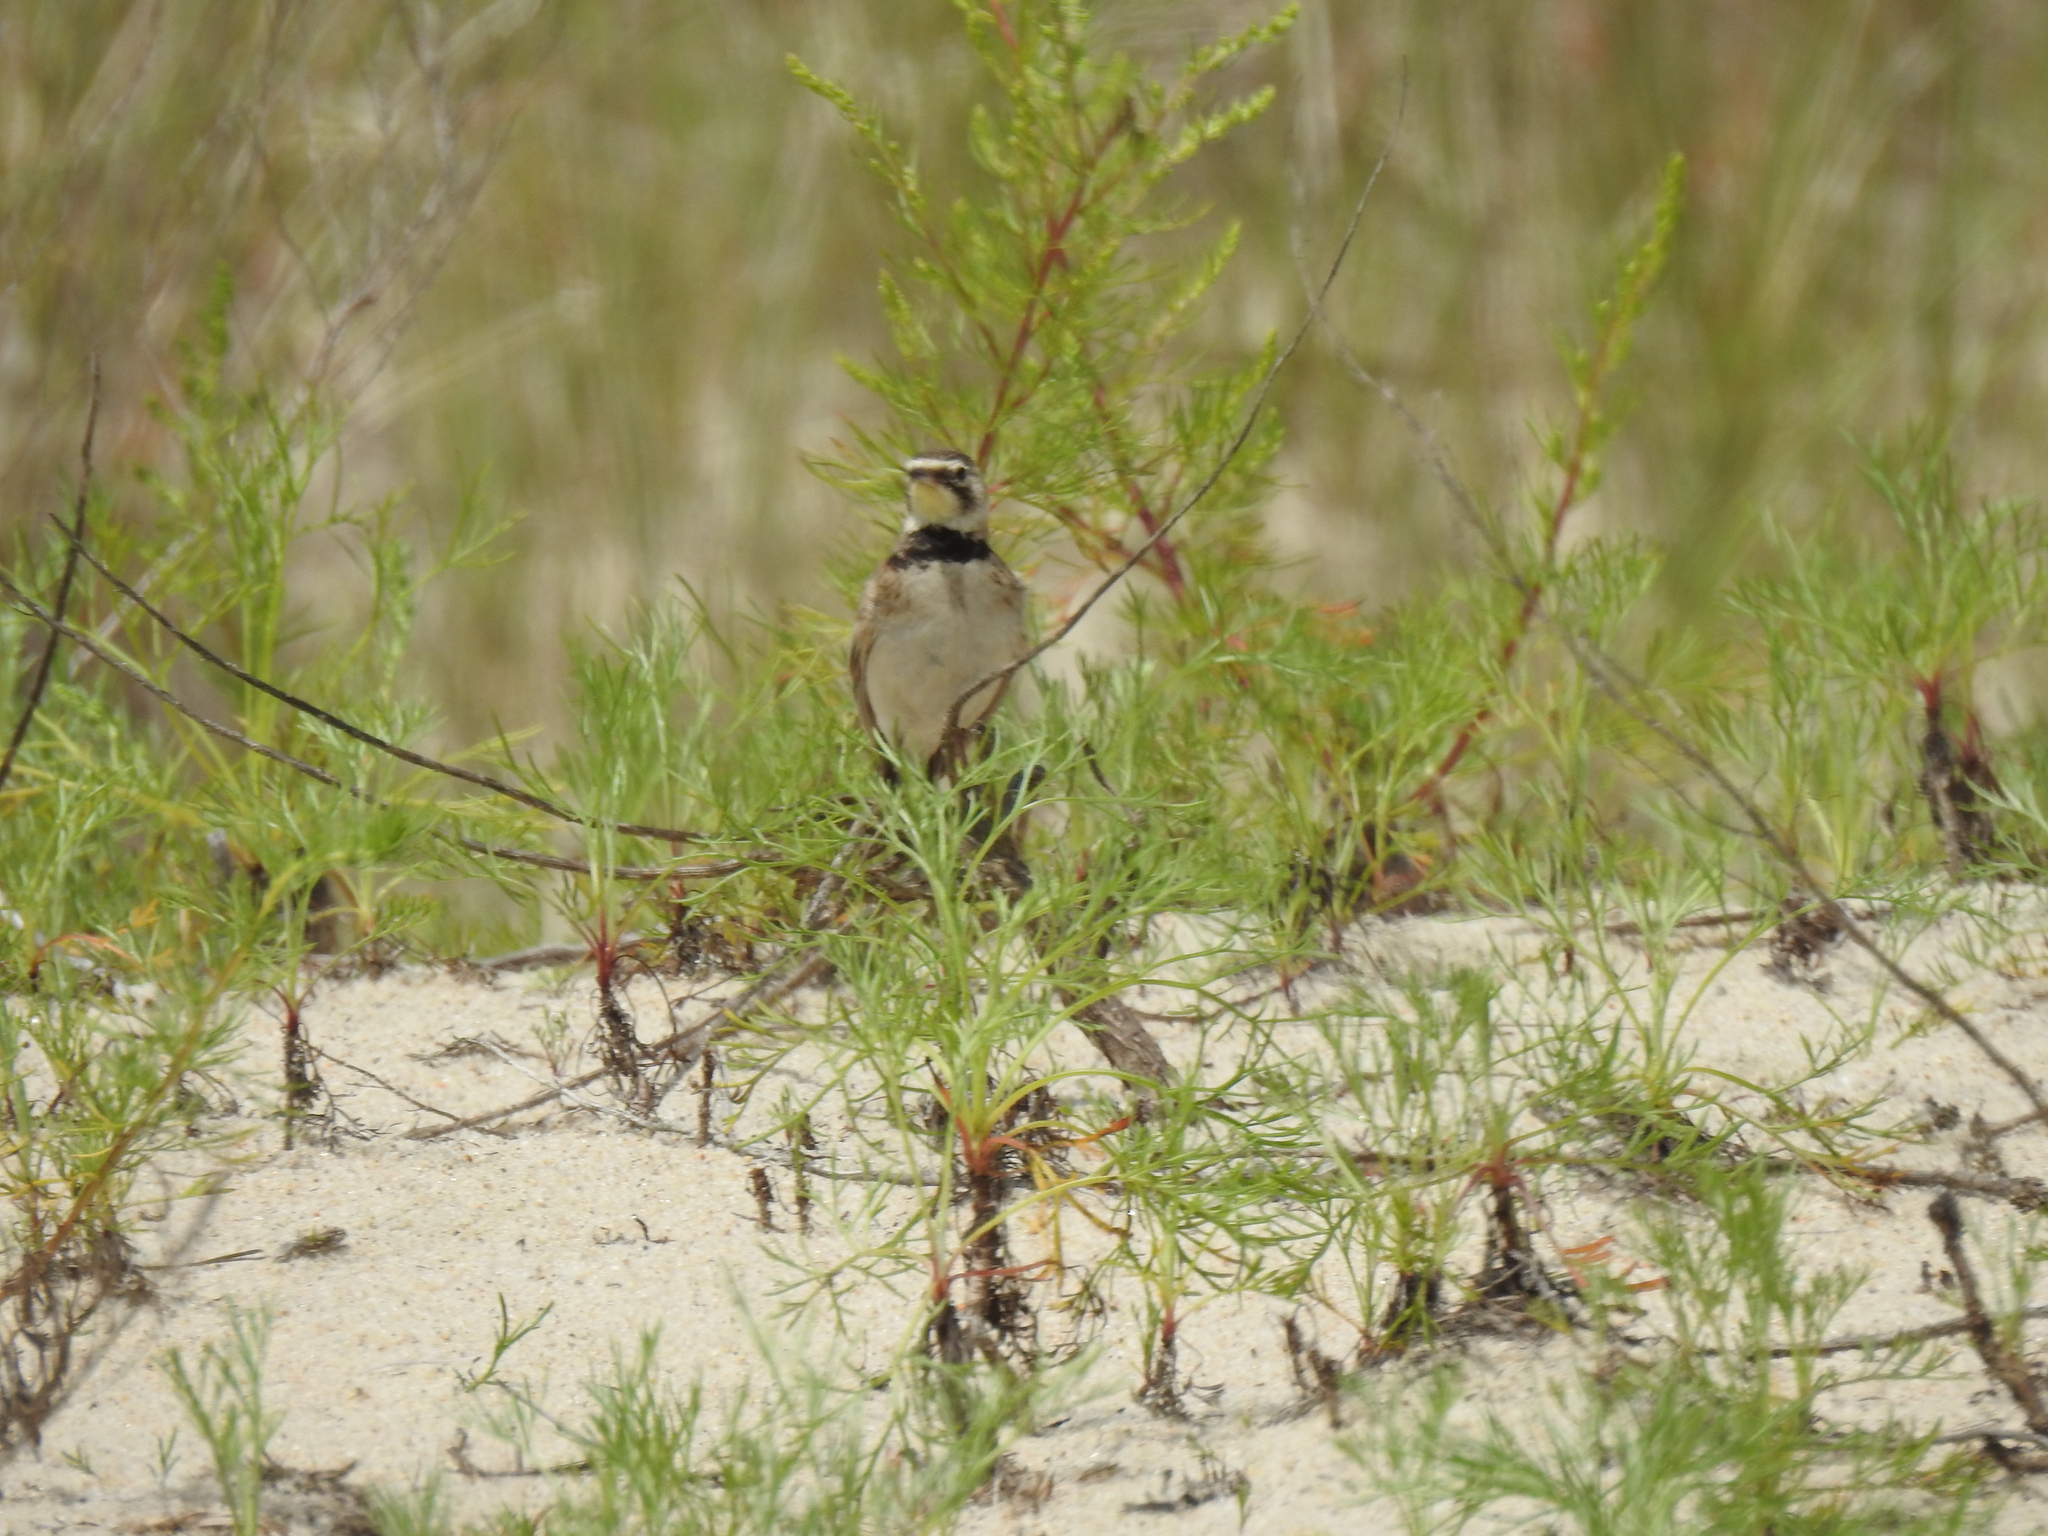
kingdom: Animalia
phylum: Chordata
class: Aves
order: Passeriformes
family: Alaudidae
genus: Eremophila
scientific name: Eremophila alpestris
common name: Horned lark
